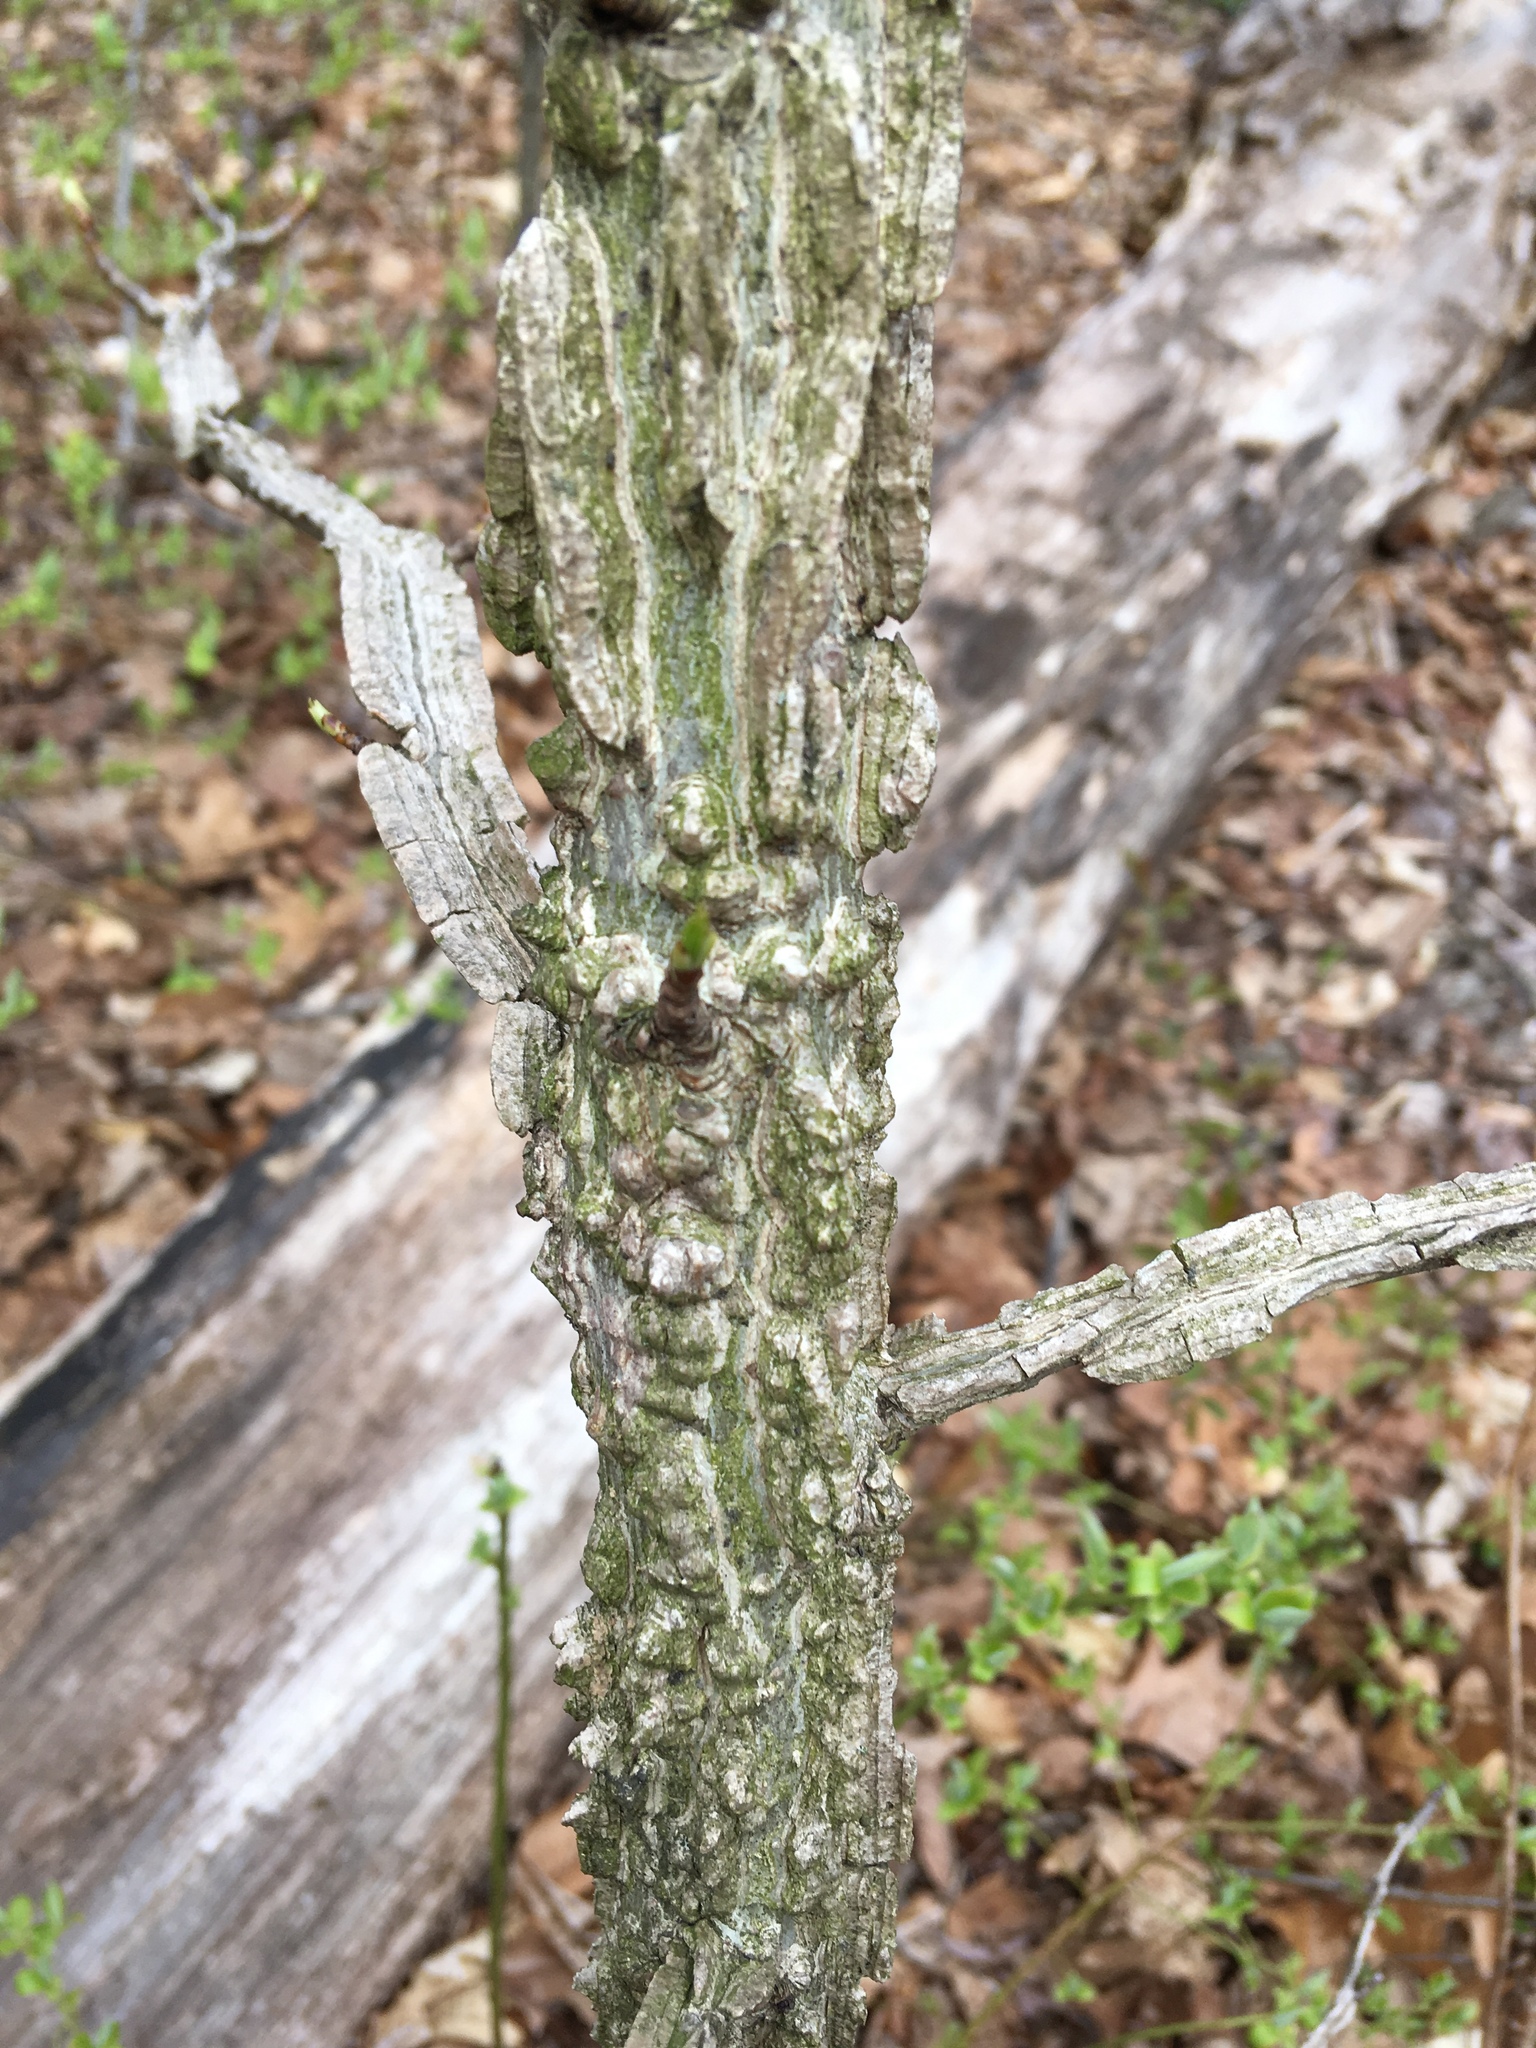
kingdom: Plantae
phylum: Tracheophyta
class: Magnoliopsida
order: Saxifragales
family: Altingiaceae
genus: Liquidambar
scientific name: Liquidambar styraciflua
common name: Sweet gum
